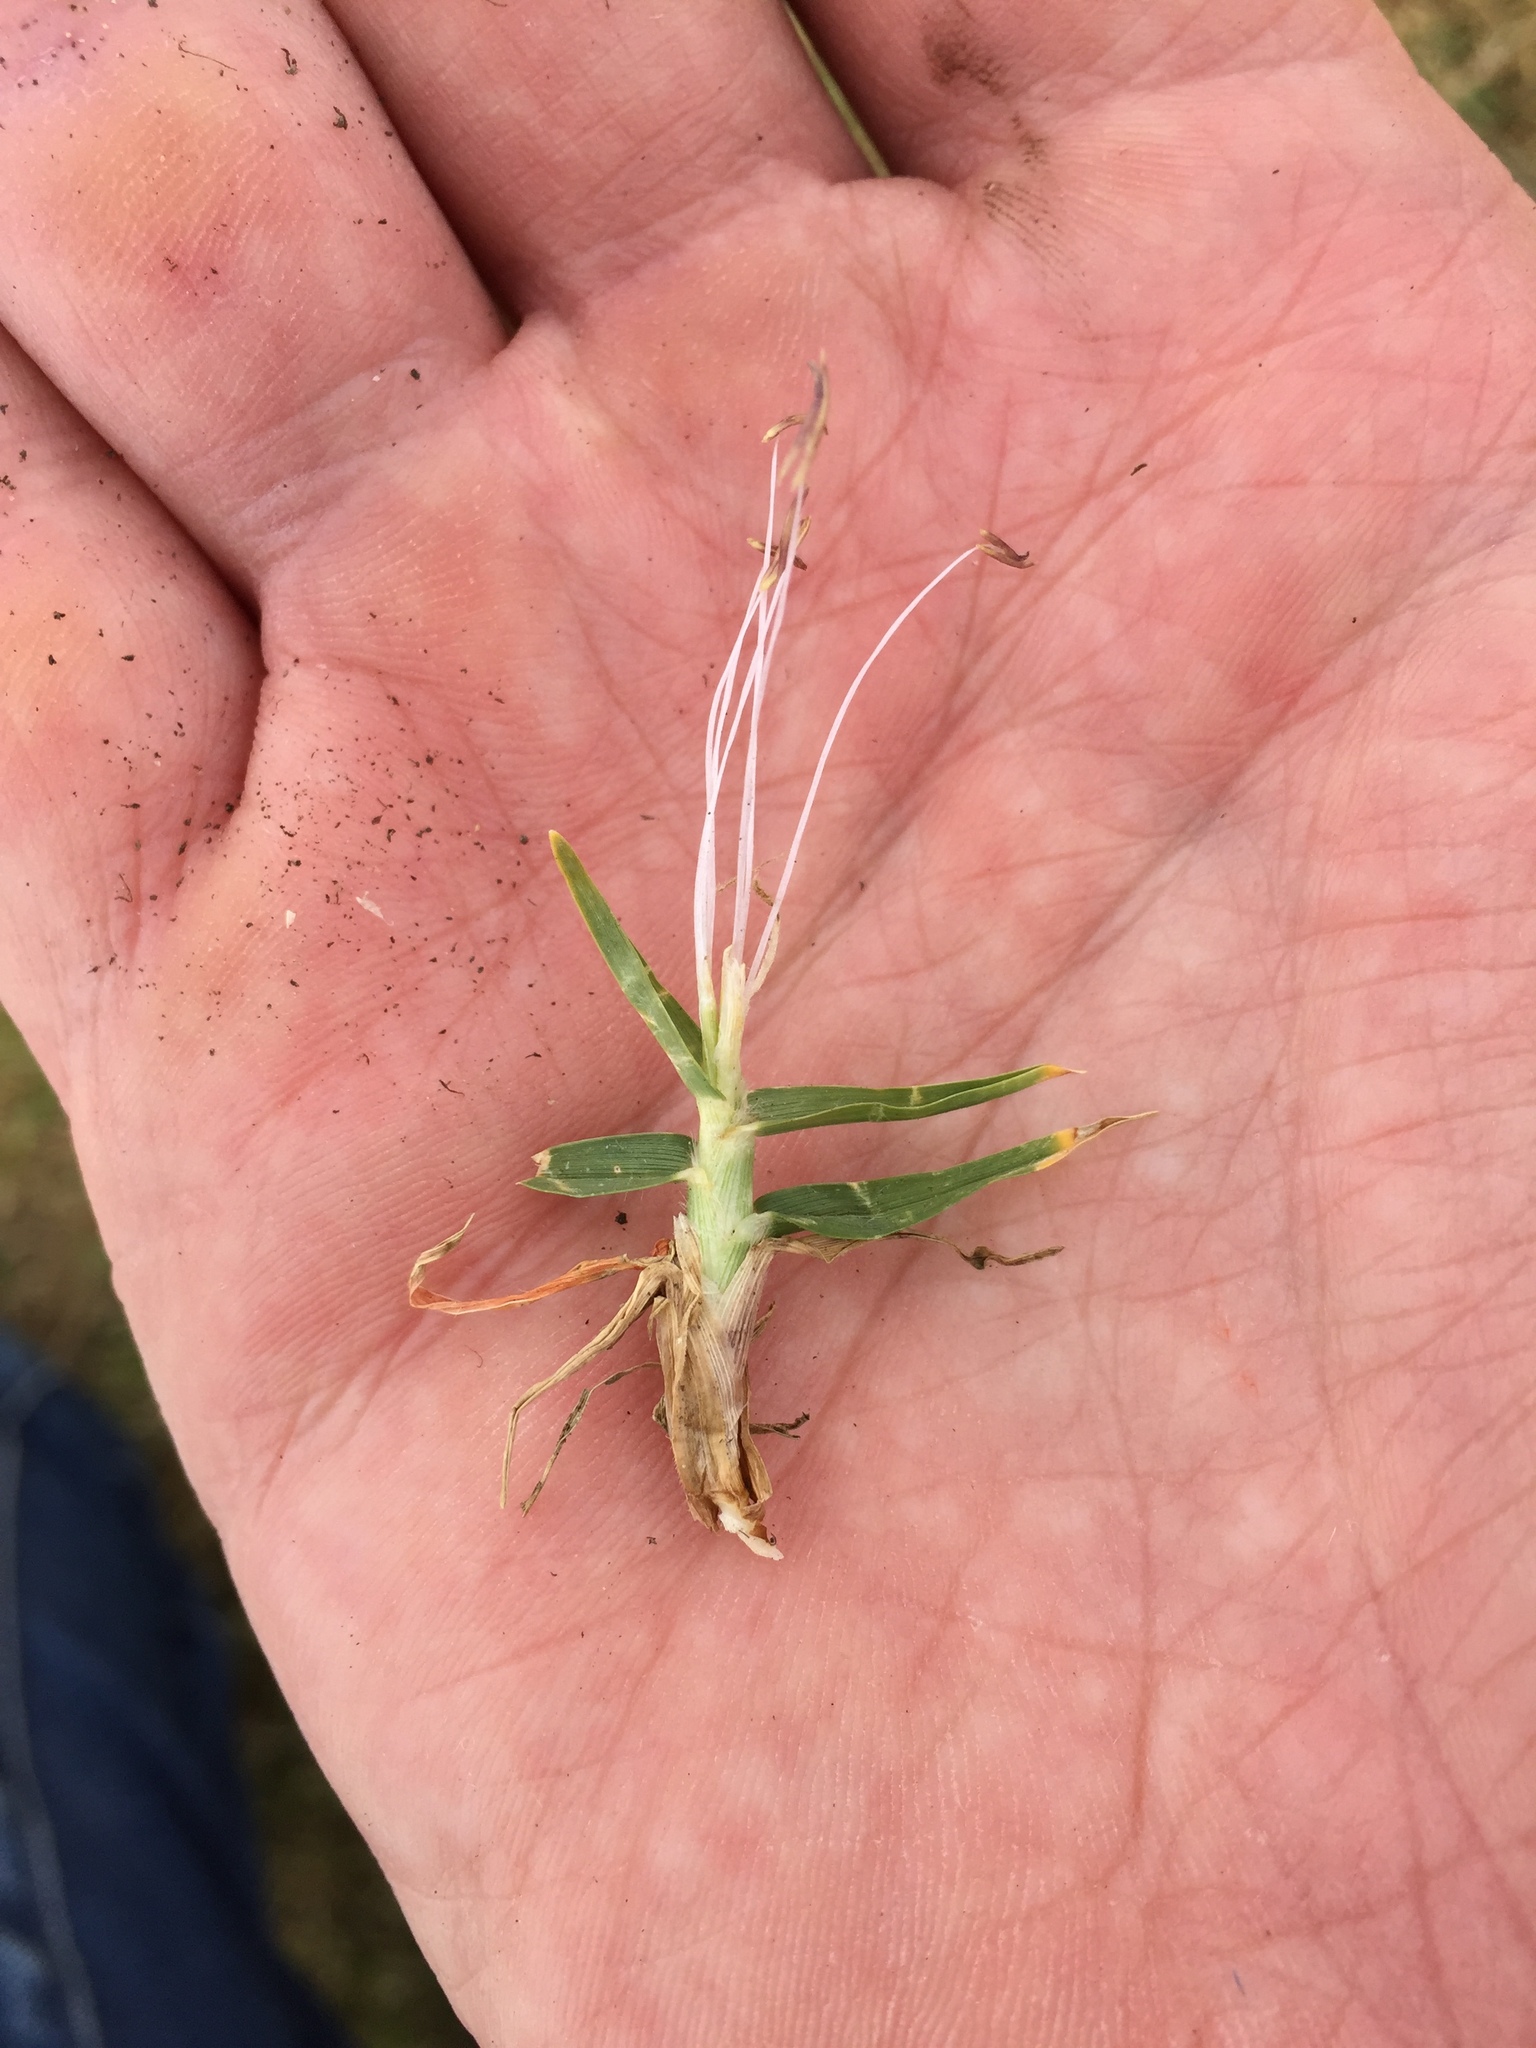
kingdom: Plantae
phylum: Tracheophyta
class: Liliopsida
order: Poales
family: Poaceae
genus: Cenchrus
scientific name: Cenchrus clandestinus
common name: Kikuyugrass
